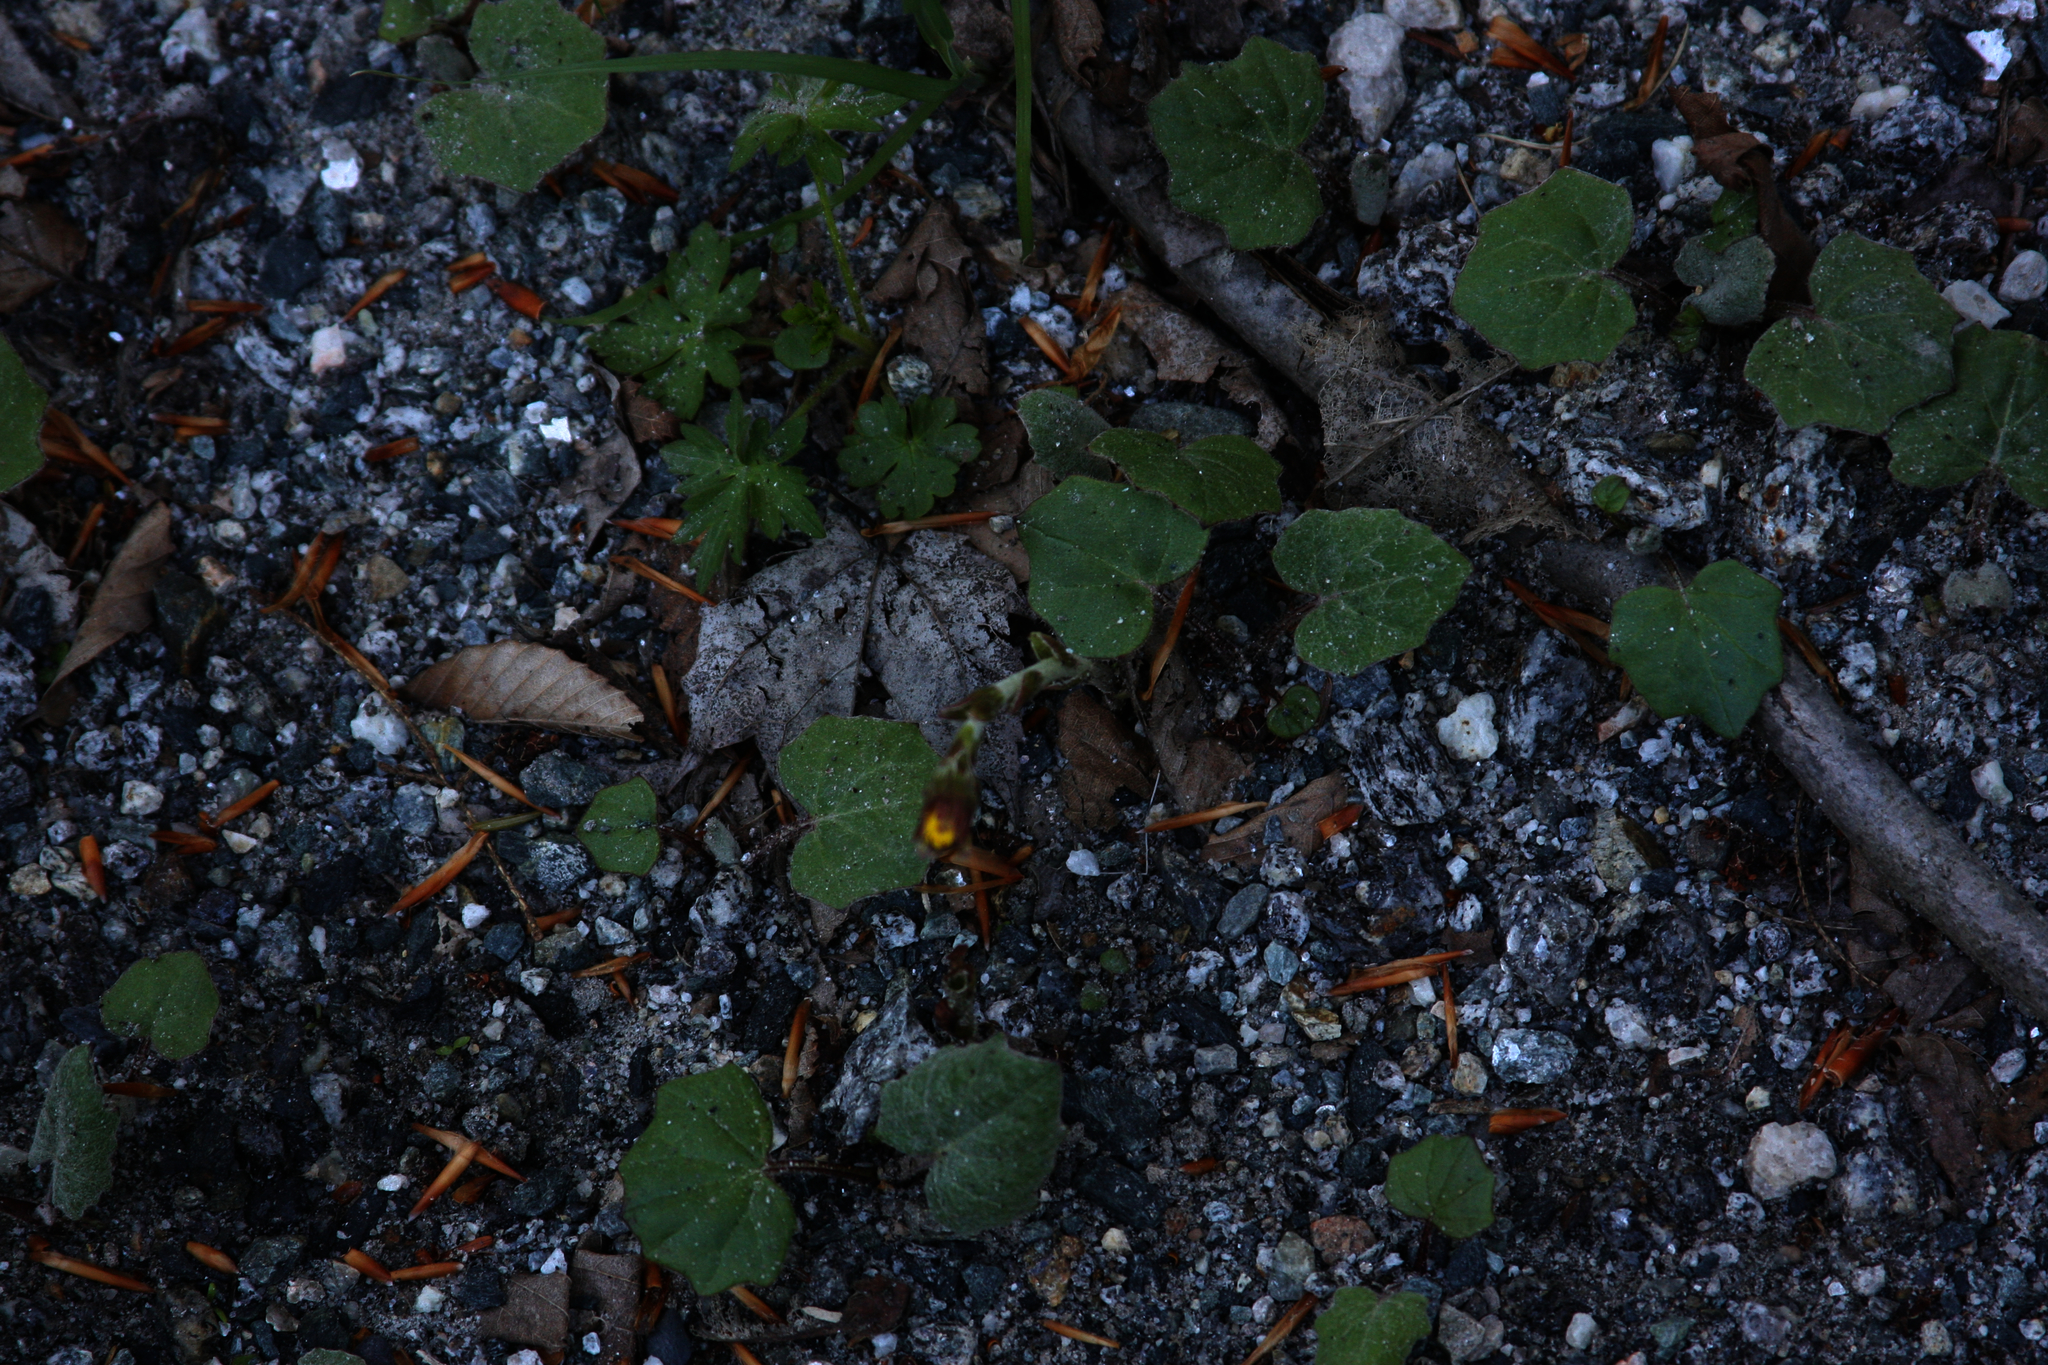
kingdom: Plantae
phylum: Tracheophyta
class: Magnoliopsida
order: Asterales
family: Asteraceae
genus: Tussilago
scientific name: Tussilago farfara
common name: Coltsfoot
